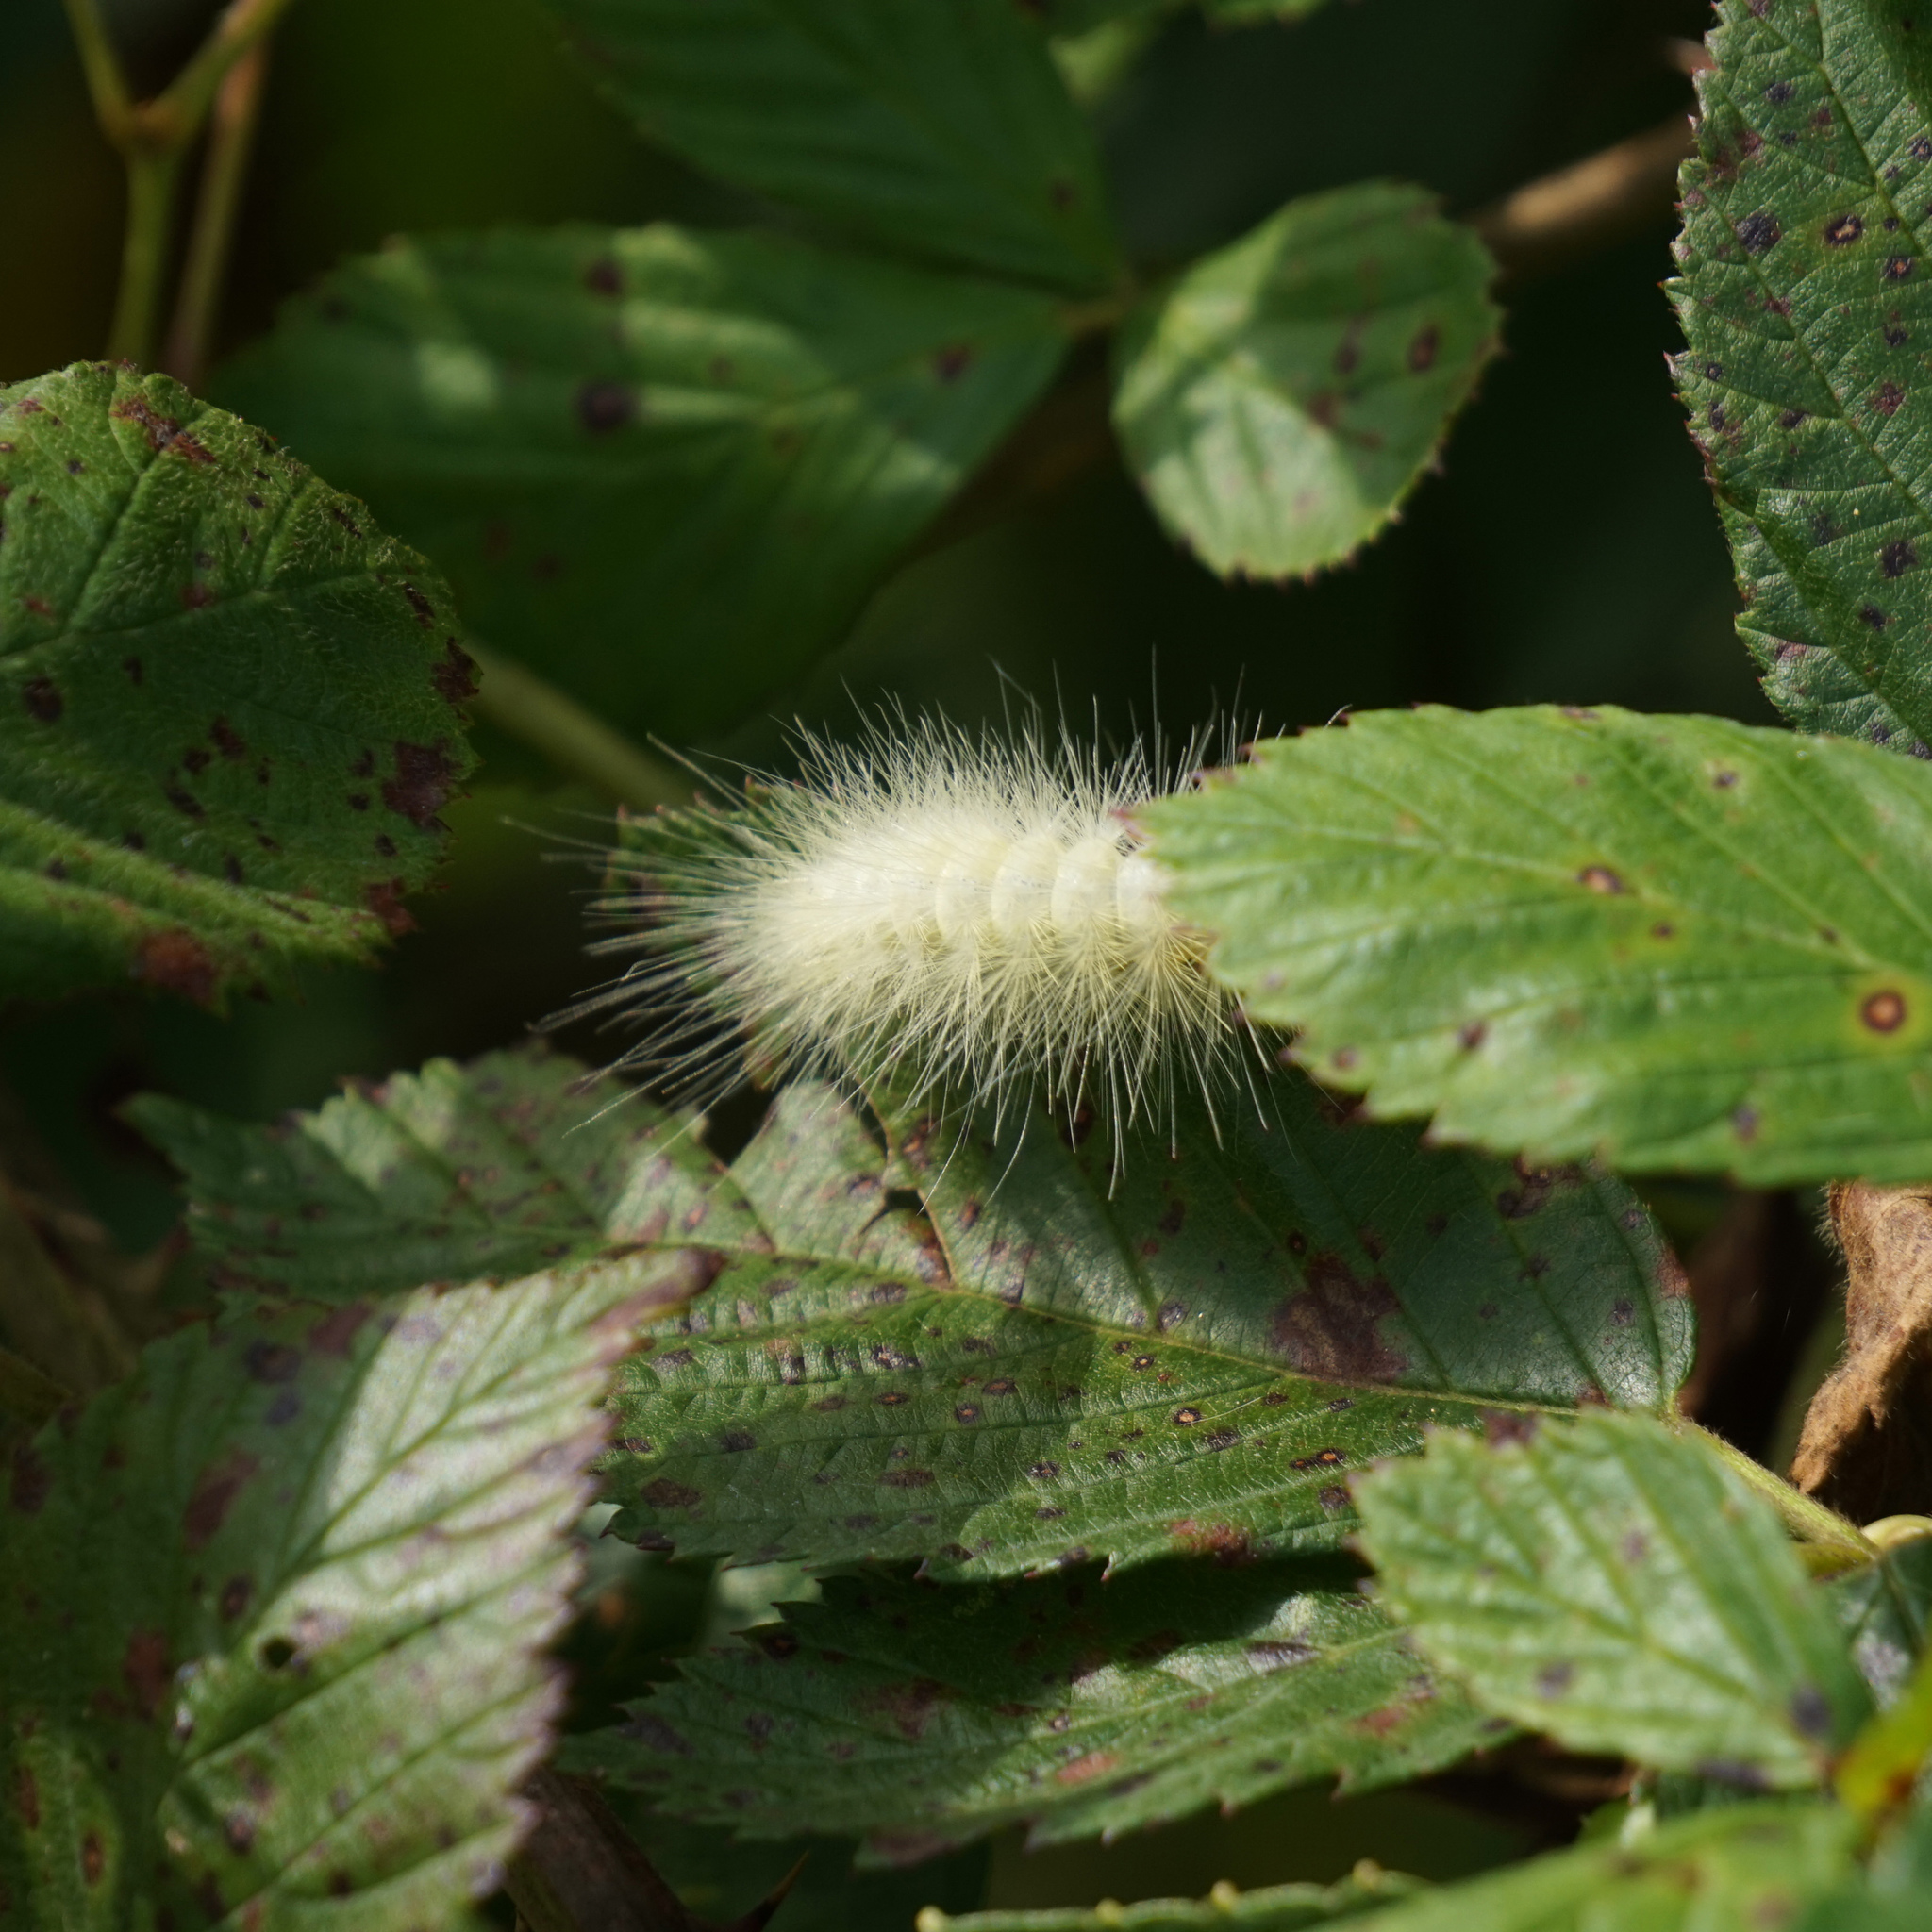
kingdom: Animalia
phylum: Arthropoda
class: Insecta
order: Lepidoptera
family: Erebidae
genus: Spilosoma
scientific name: Spilosoma virginica
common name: Virginia tiger moth
